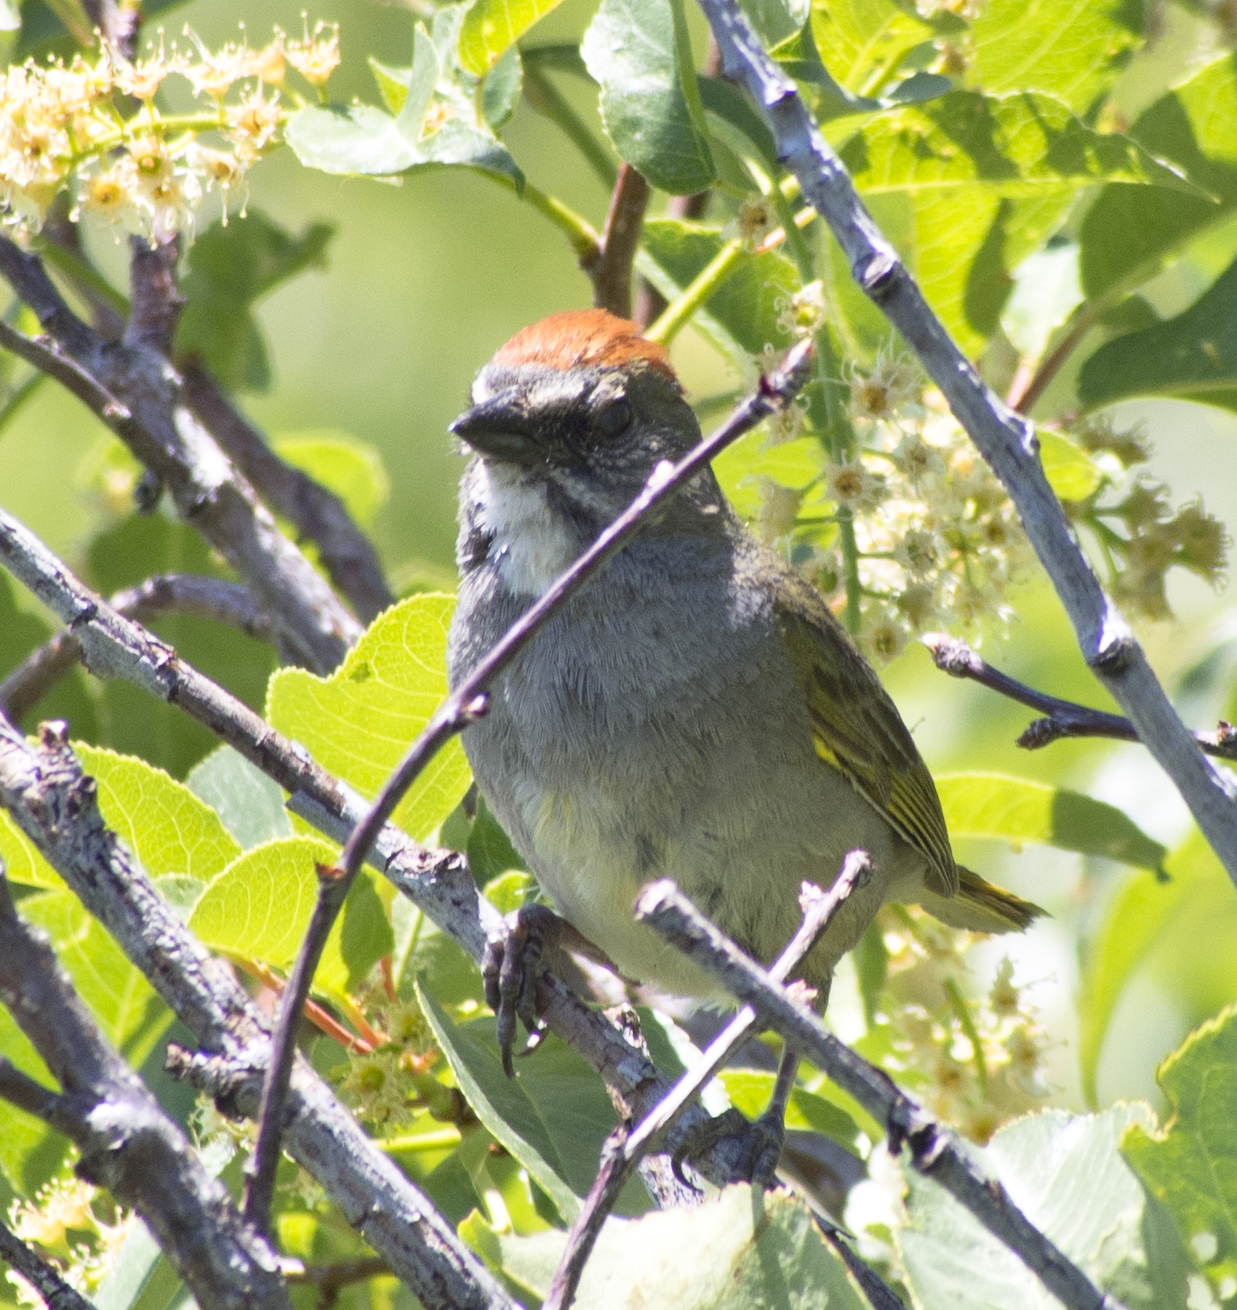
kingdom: Animalia
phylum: Chordata
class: Aves
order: Passeriformes
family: Passerellidae
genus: Pipilo
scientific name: Pipilo chlorurus
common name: Green-tailed towhee
